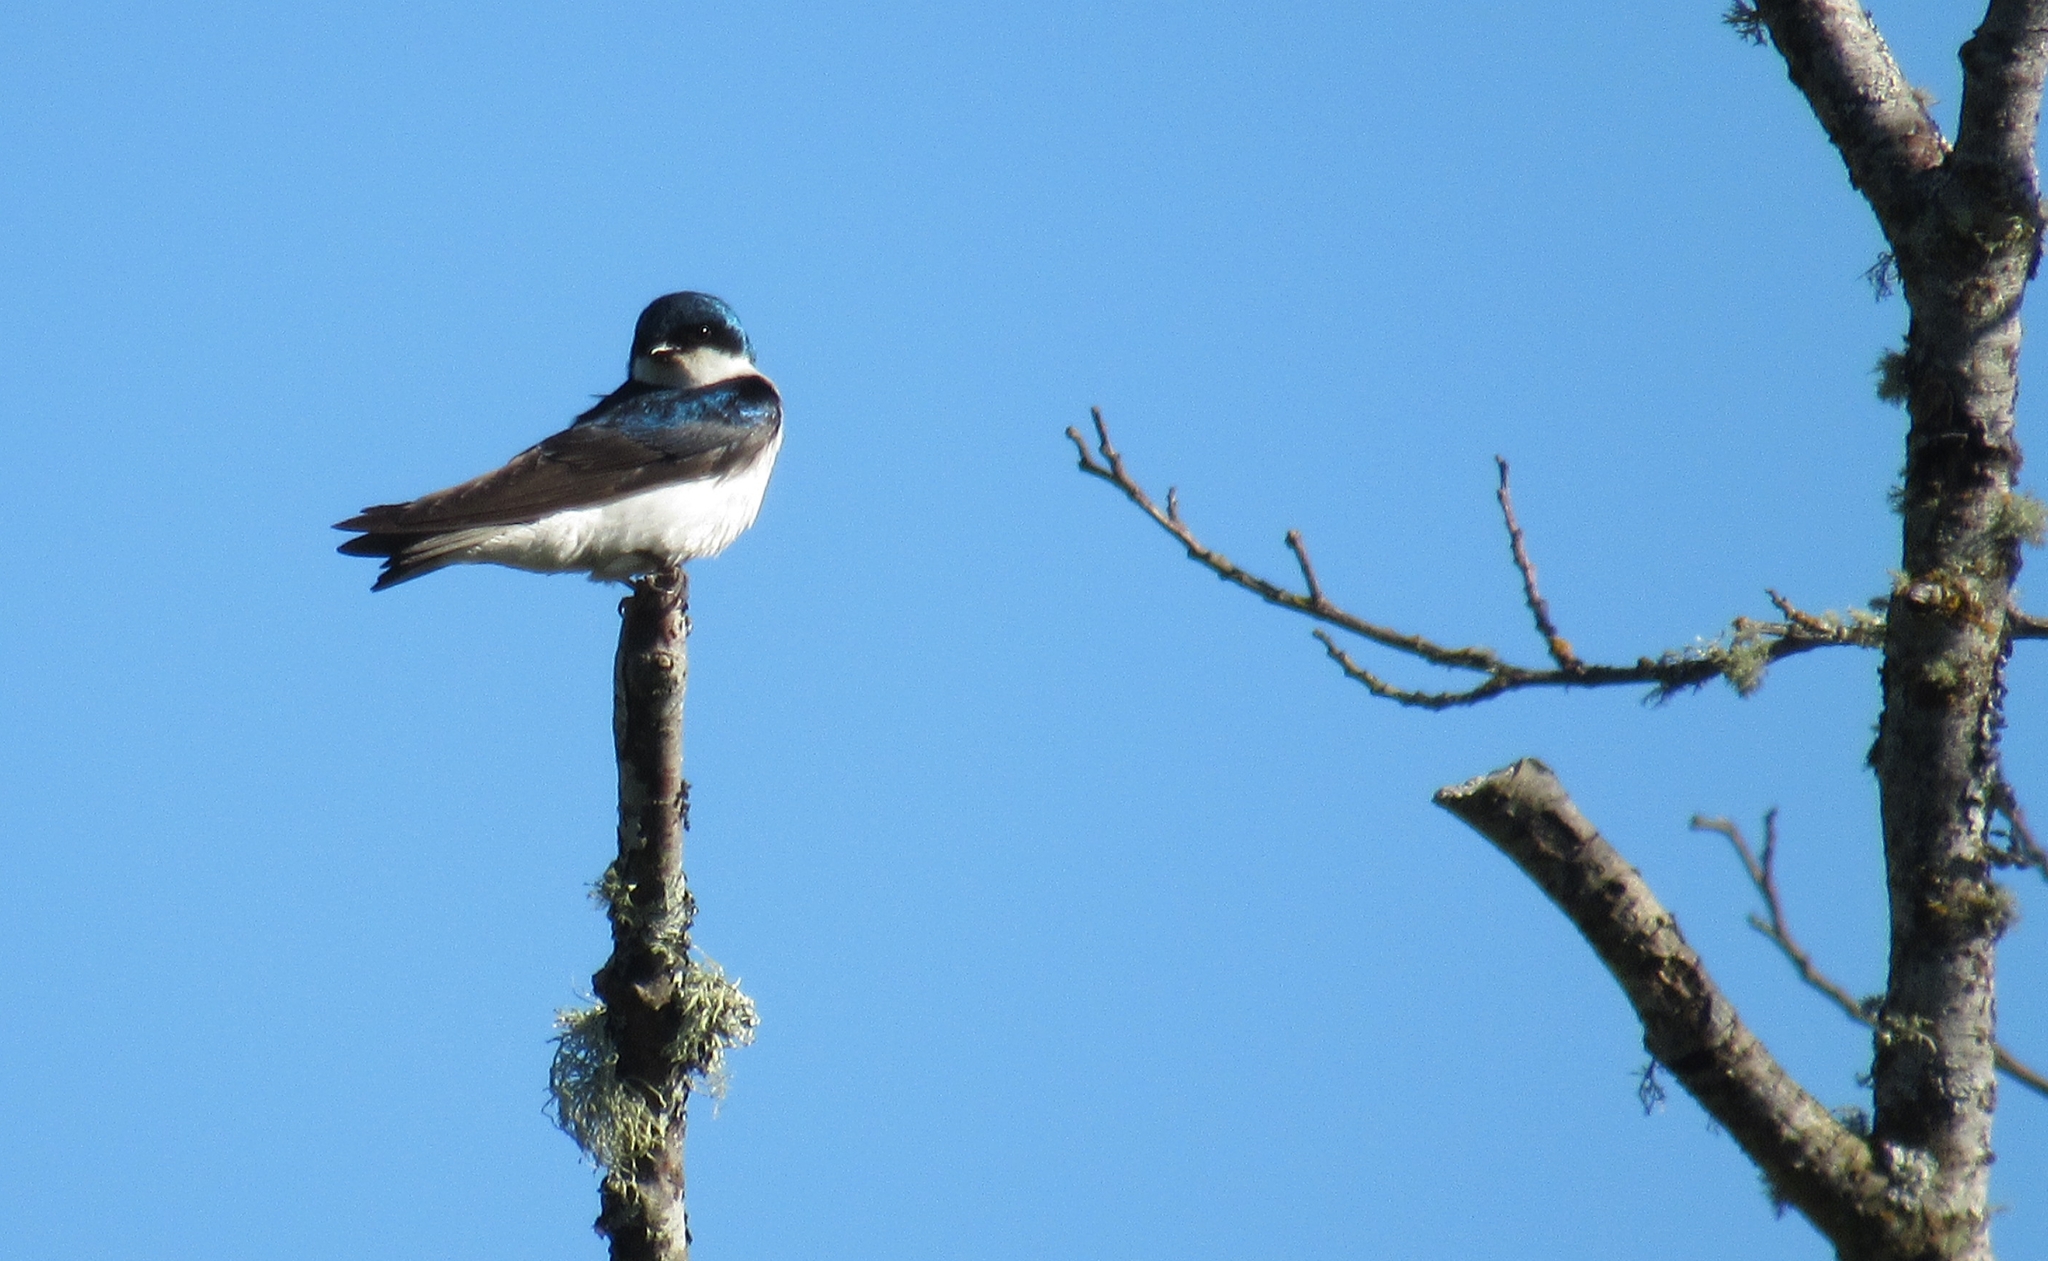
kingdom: Animalia
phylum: Chordata
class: Aves
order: Passeriformes
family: Hirundinidae
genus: Tachycineta
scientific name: Tachycineta bicolor
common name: Tree swallow
